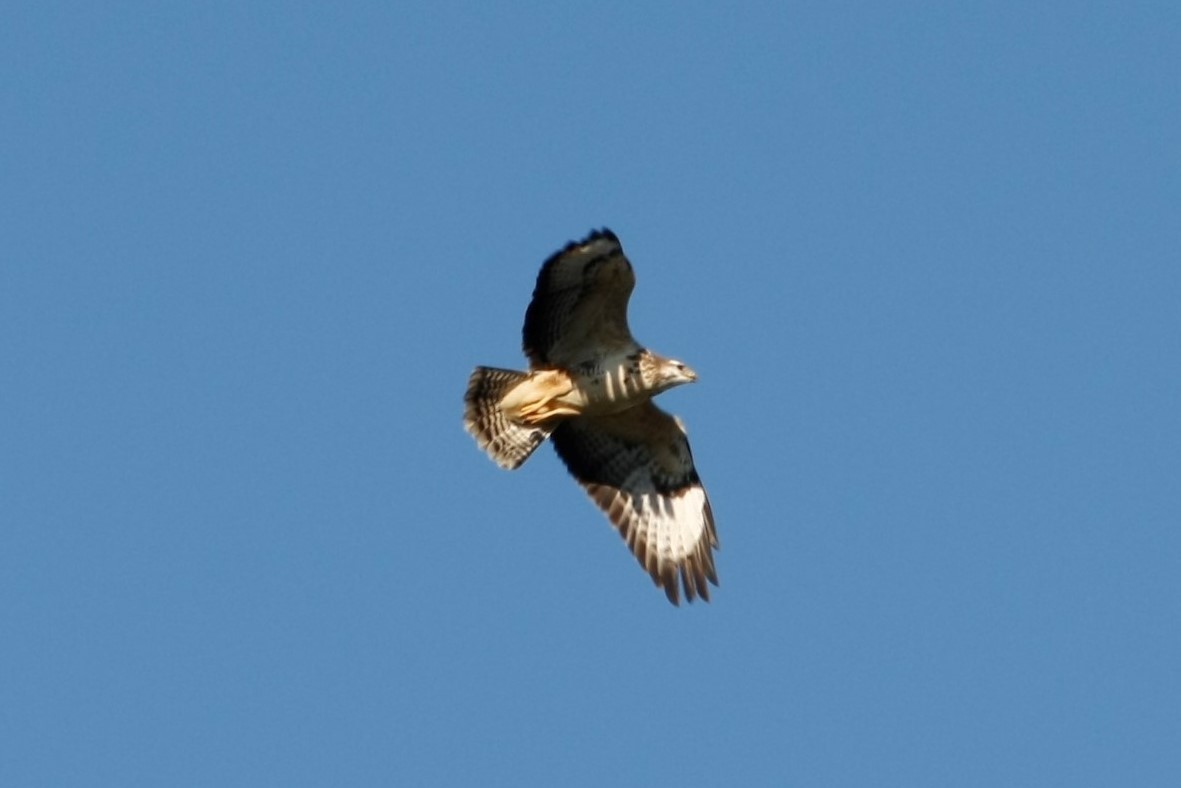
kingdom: Animalia
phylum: Chordata
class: Aves
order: Accipitriformes
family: Accipitridae
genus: Buteo
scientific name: Buteo buteo
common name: Common buzzard
